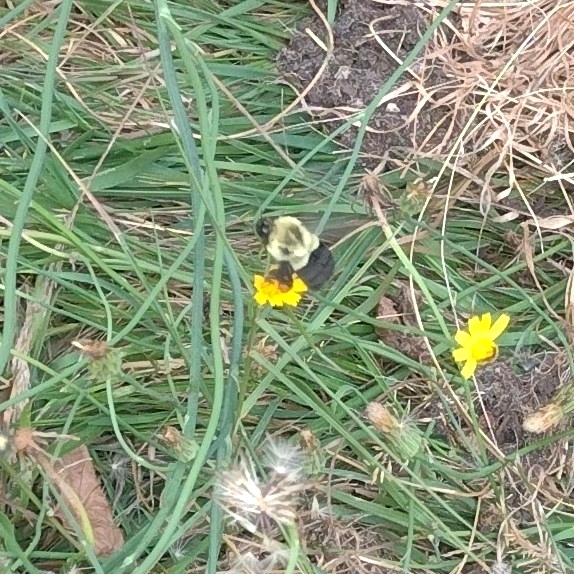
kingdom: Animalia
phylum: Arthropoda
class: Insecta
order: Hymenoptera
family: Apidae
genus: Bombus
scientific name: Bombus impatiens
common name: Common eastern bumble bee
